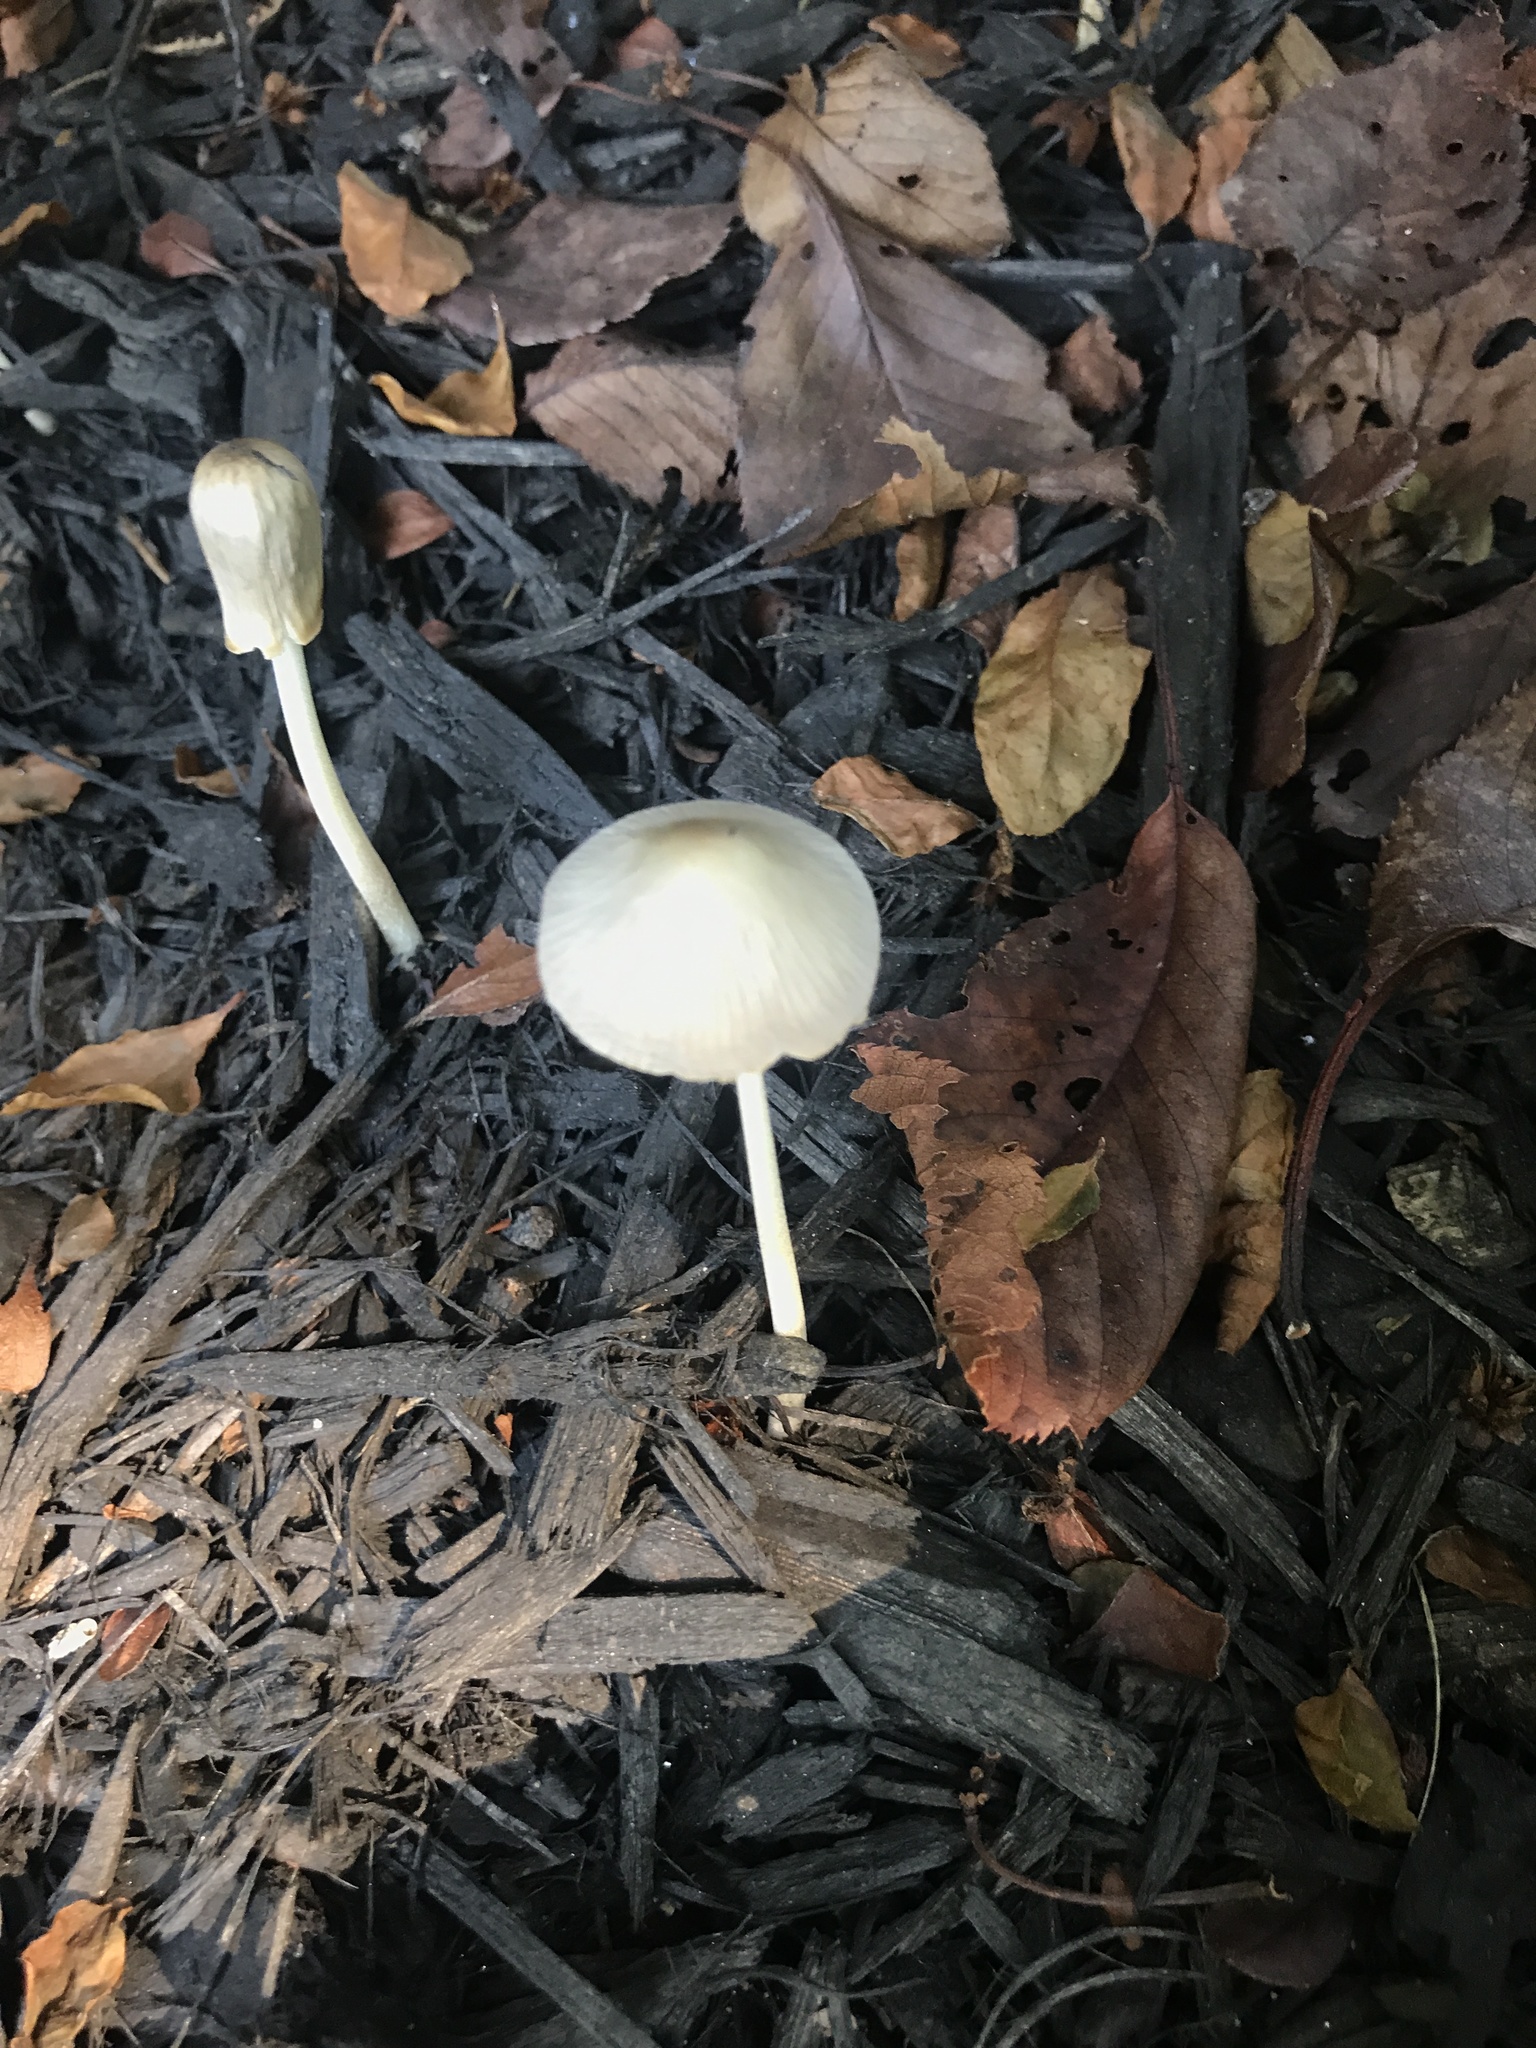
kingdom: Fungi
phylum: Basidiomycota
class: Agaricomycetes
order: Agaricales
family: Bolbitiaceae
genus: Conocybe
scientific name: Conocybe apala
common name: Milky conecap
